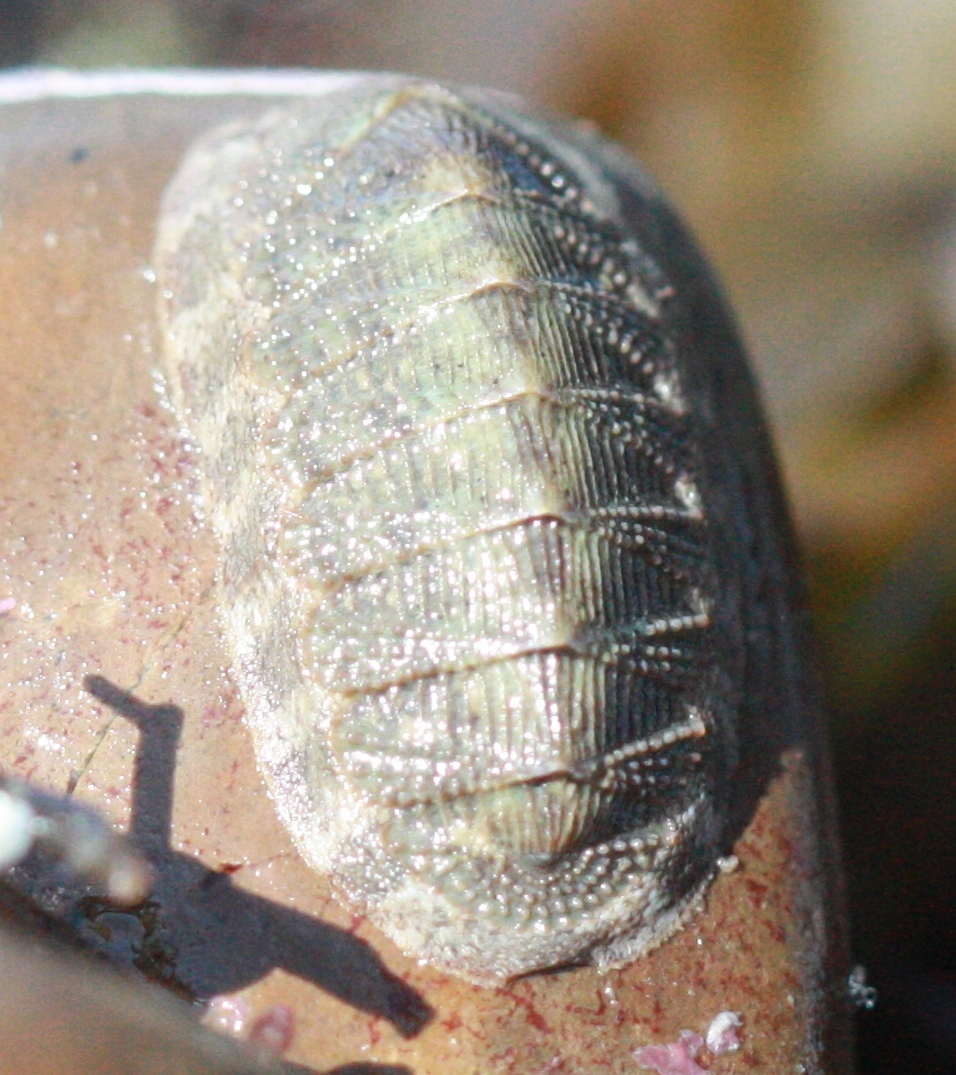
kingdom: Animalia
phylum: Mollusca
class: Polyplacophora
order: Chitonida
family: Ischnochitonidae
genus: Lepidozona
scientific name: Lepidozona cooperi
